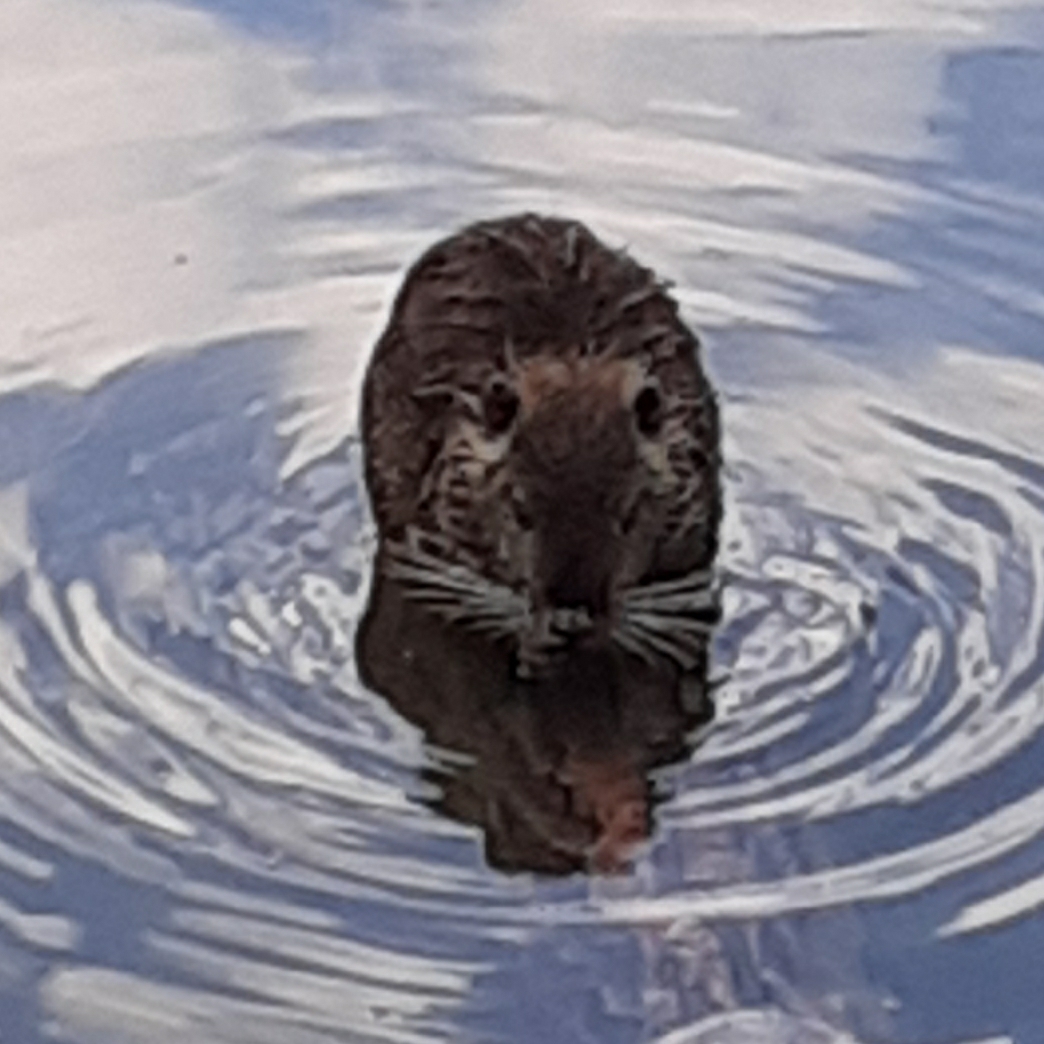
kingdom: Animalia
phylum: Chordata
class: Mammalia
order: Rodentia
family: Myocastoridae
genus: Myocastor
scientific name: Myocastor coypus
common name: Coypu
